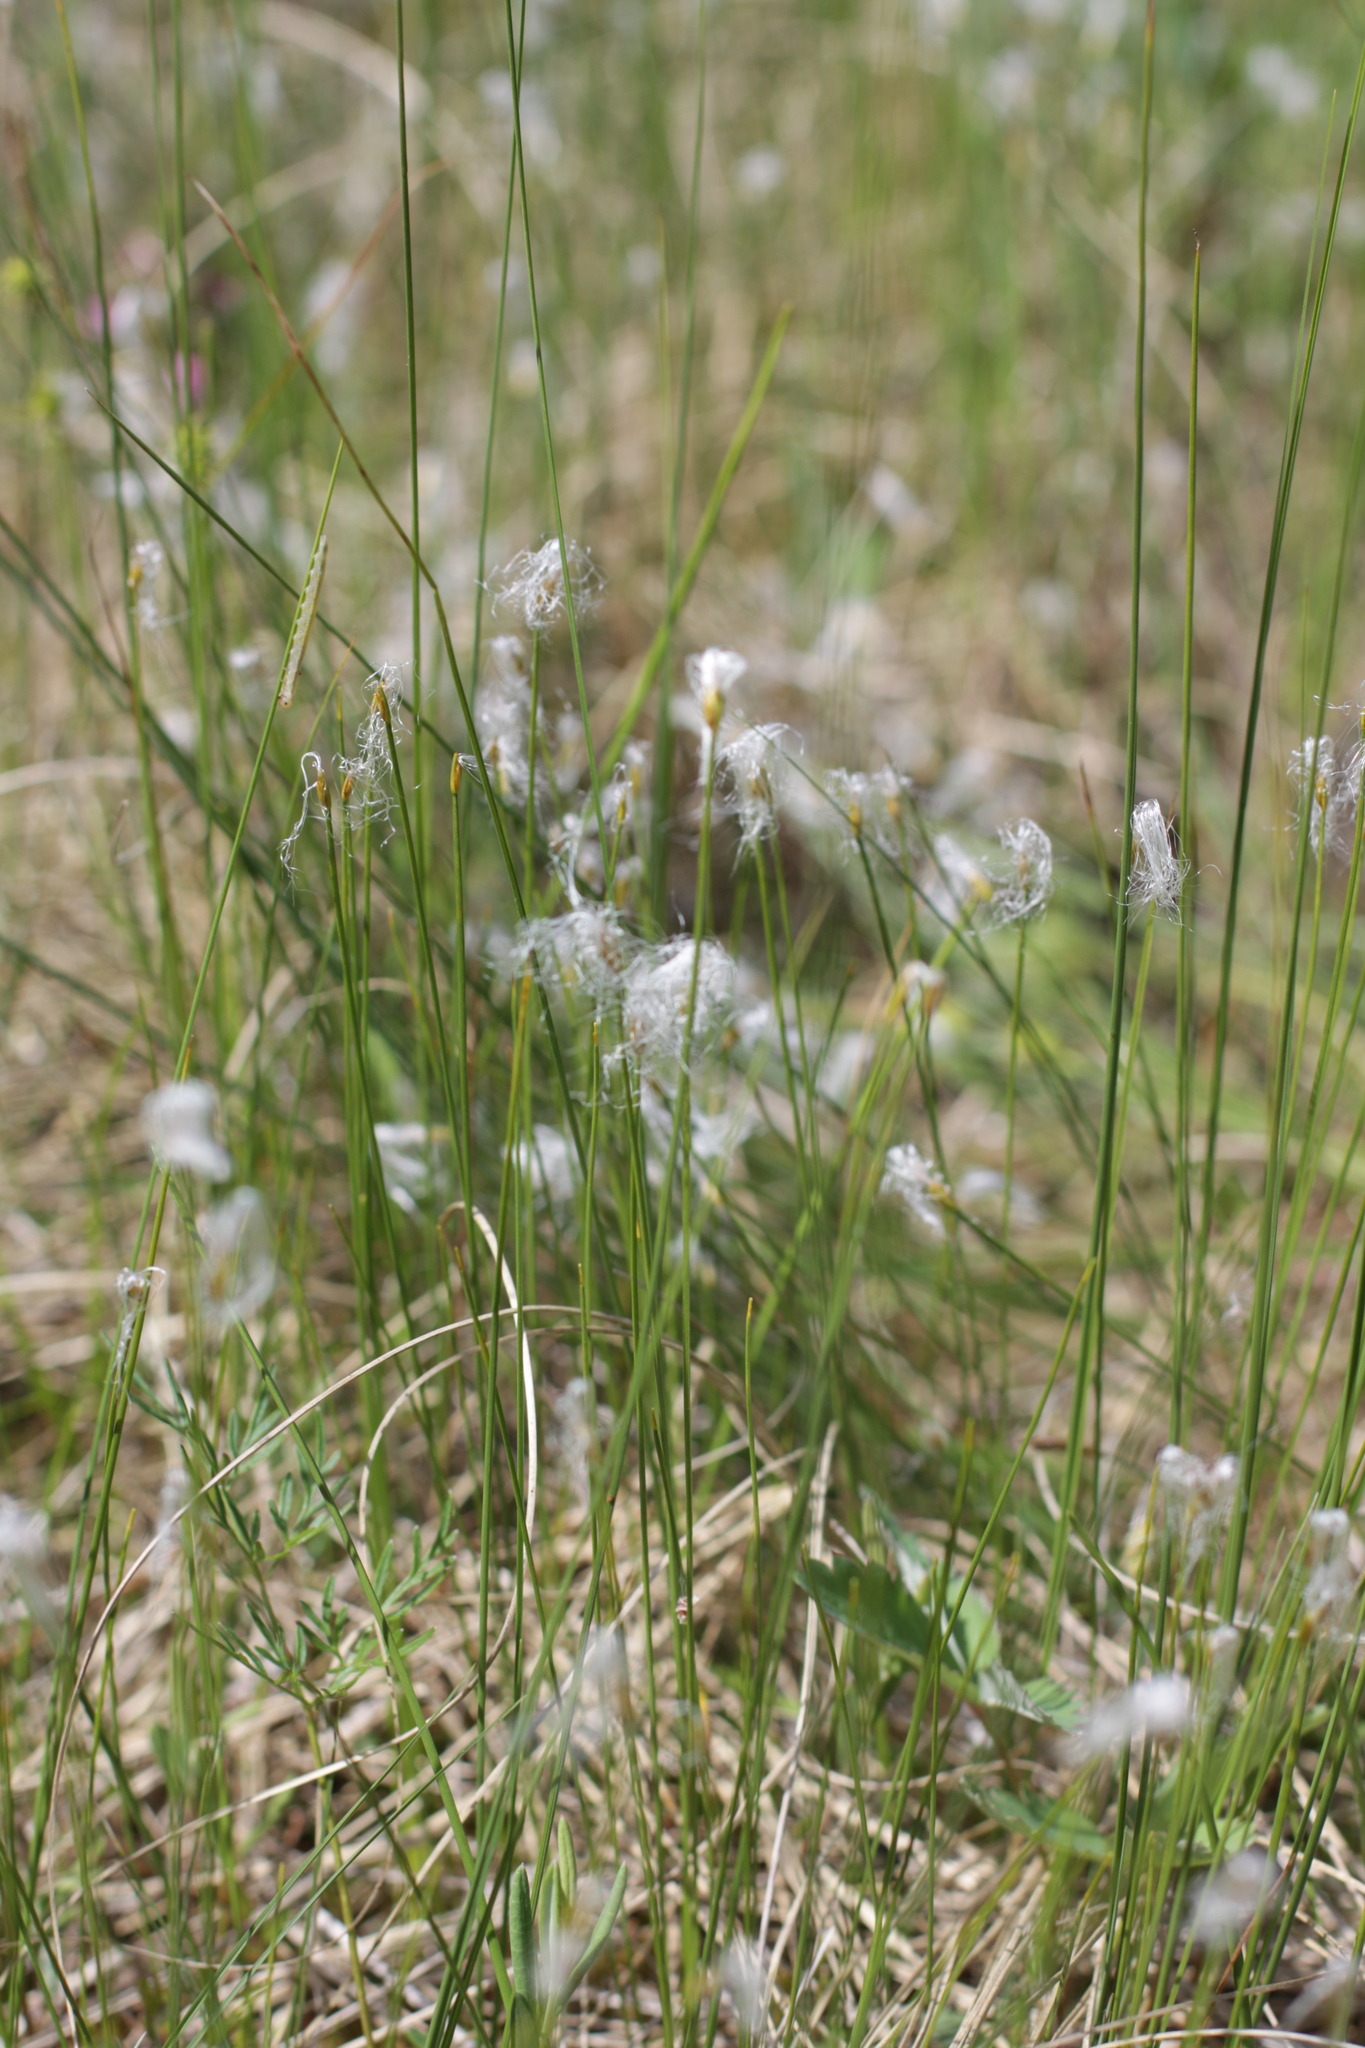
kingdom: Plantae
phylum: Tracheophyta
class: Liliopsida
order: Poales
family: Cyperaceae
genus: Trichophorum
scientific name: Trichophorum alpinum
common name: Alpine bulrush
